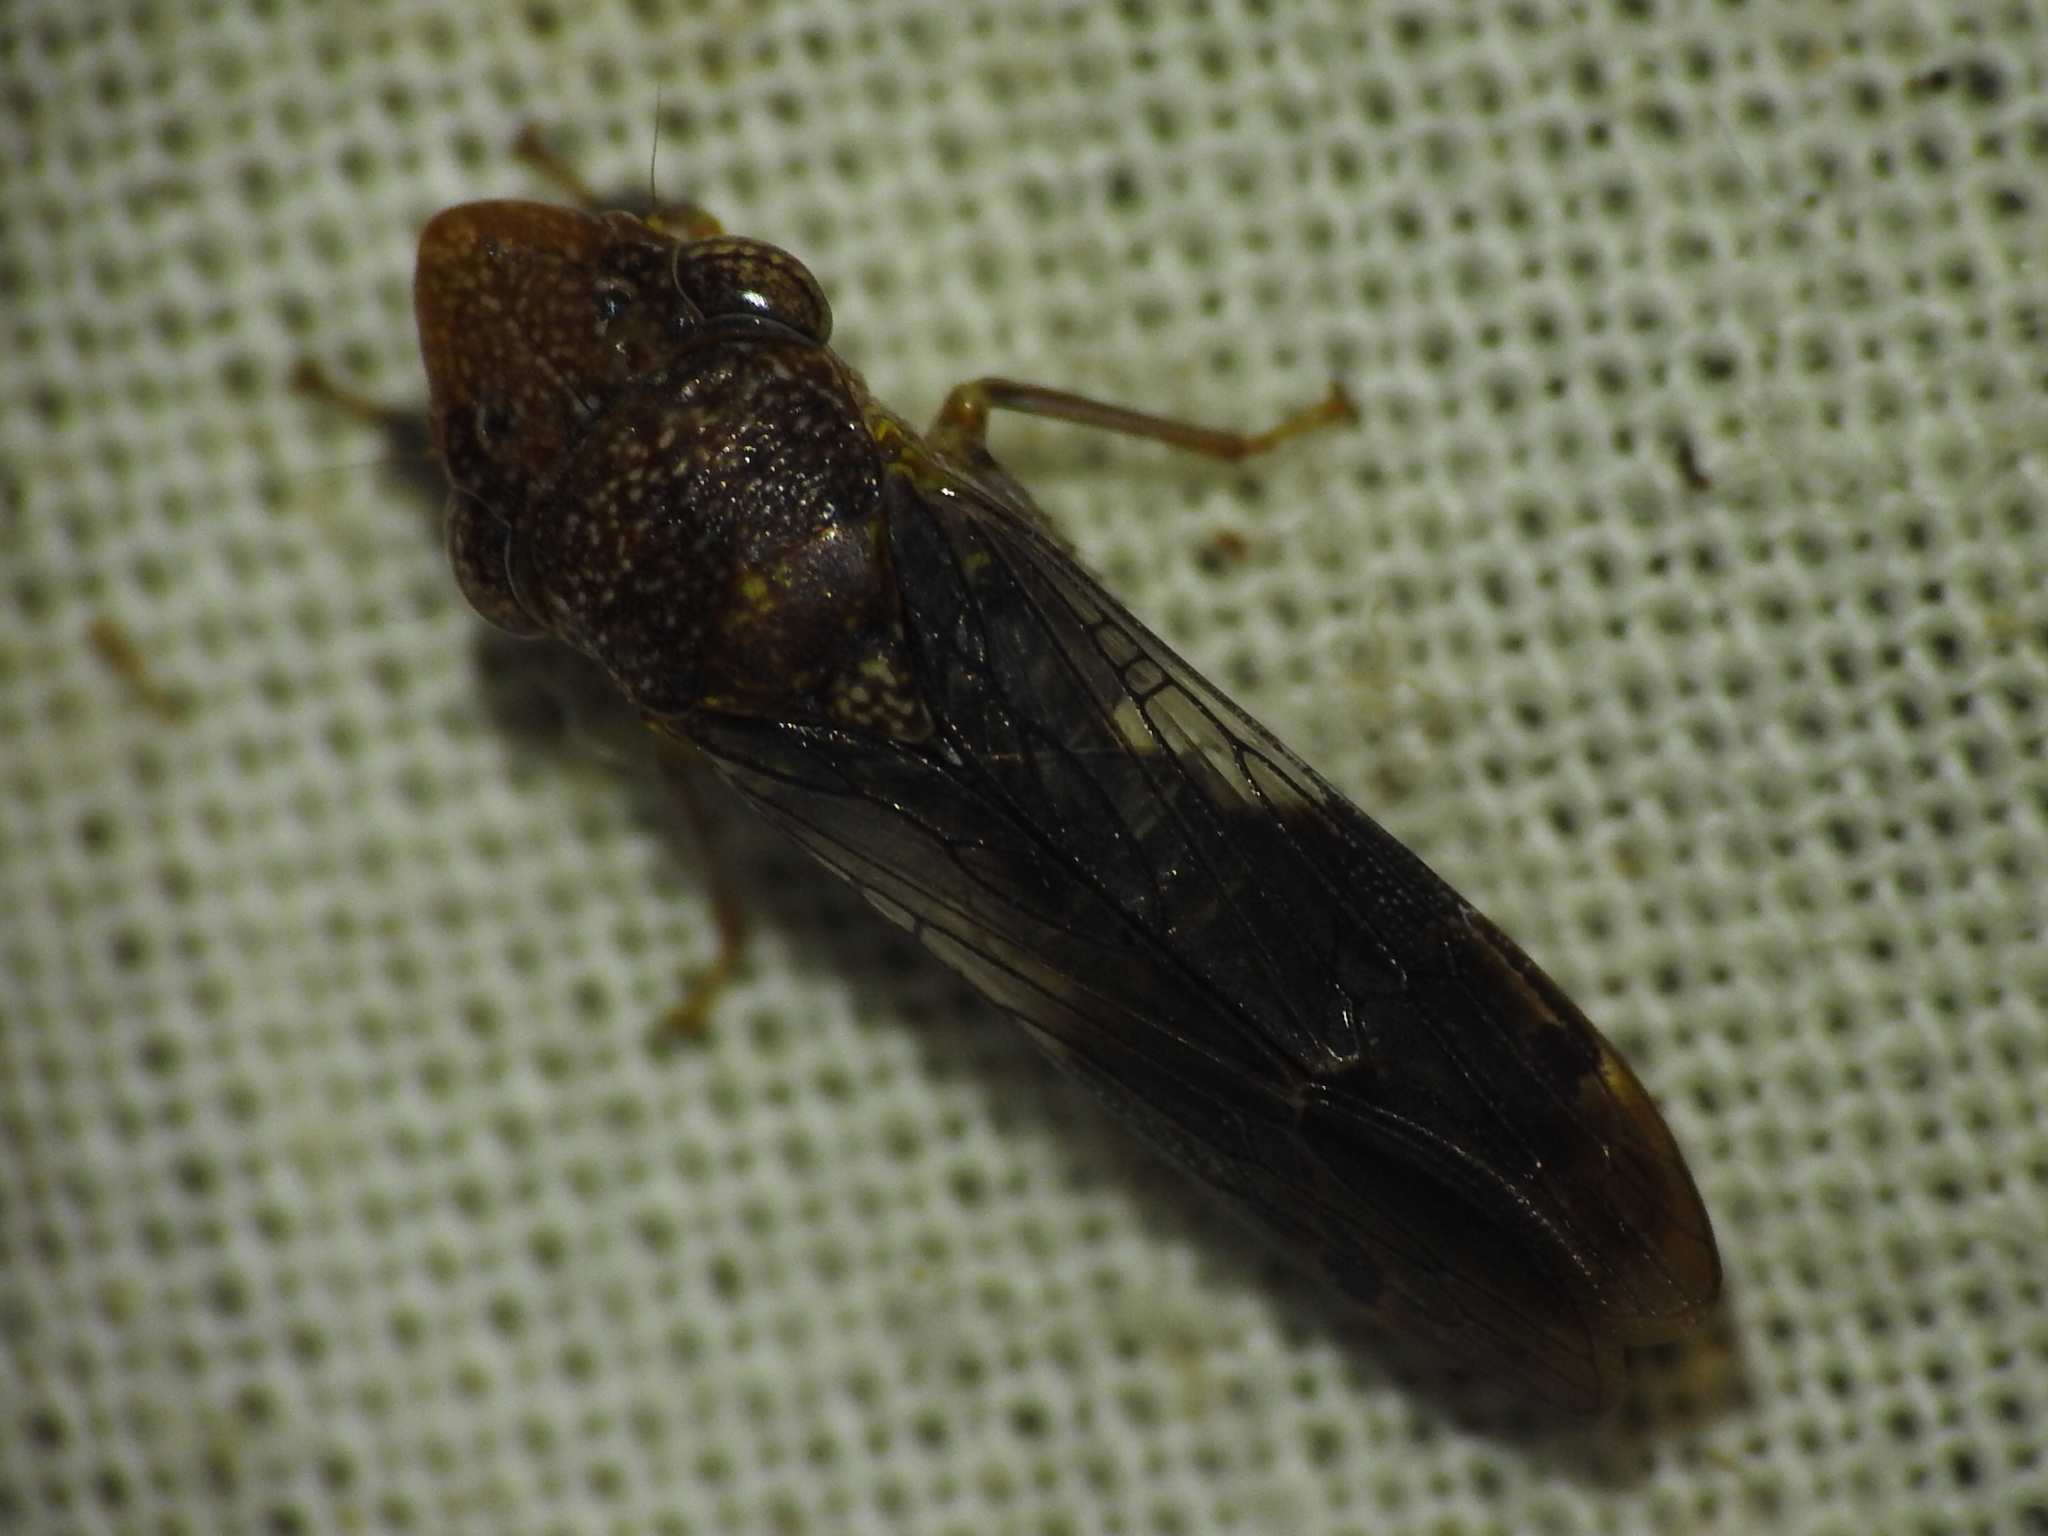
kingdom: Animalia
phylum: Arthropoda
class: Insecta
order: Hemiptera
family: Cicadellidae
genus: Homalodisca
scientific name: Homalodisca vitripennis
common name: Glassy-winged sharpshooter
